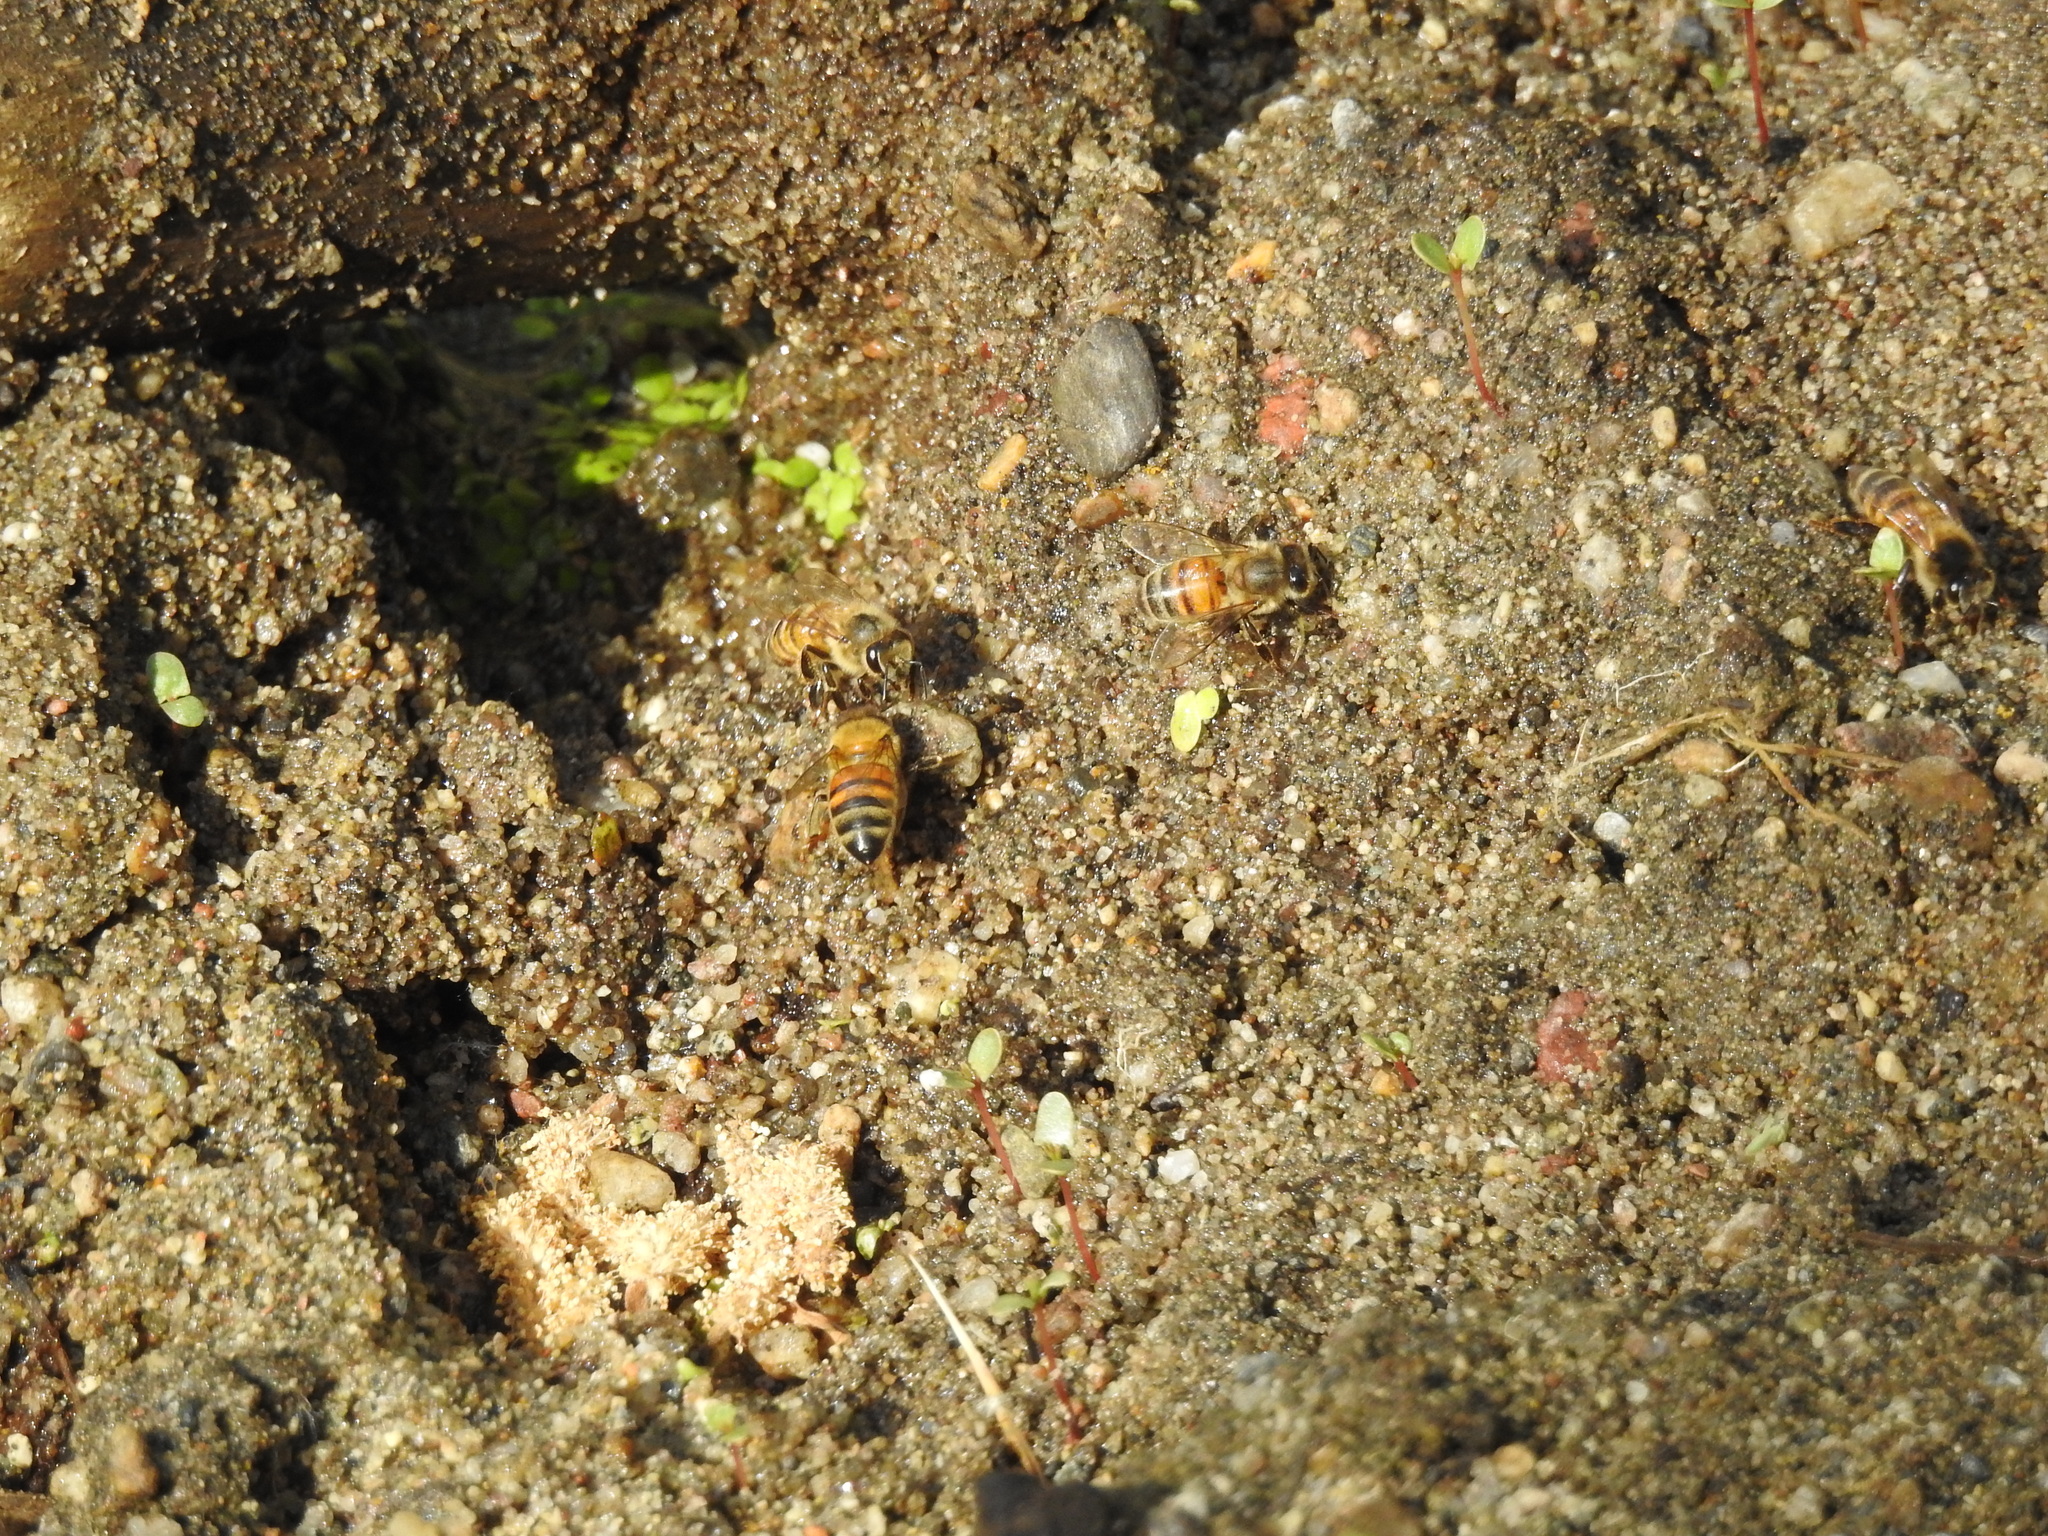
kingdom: Animalia
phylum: Arthropoda
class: Insecta
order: Hymenoptera
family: Apidae
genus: Apis
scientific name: Apis mellifera
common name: Honey bee
